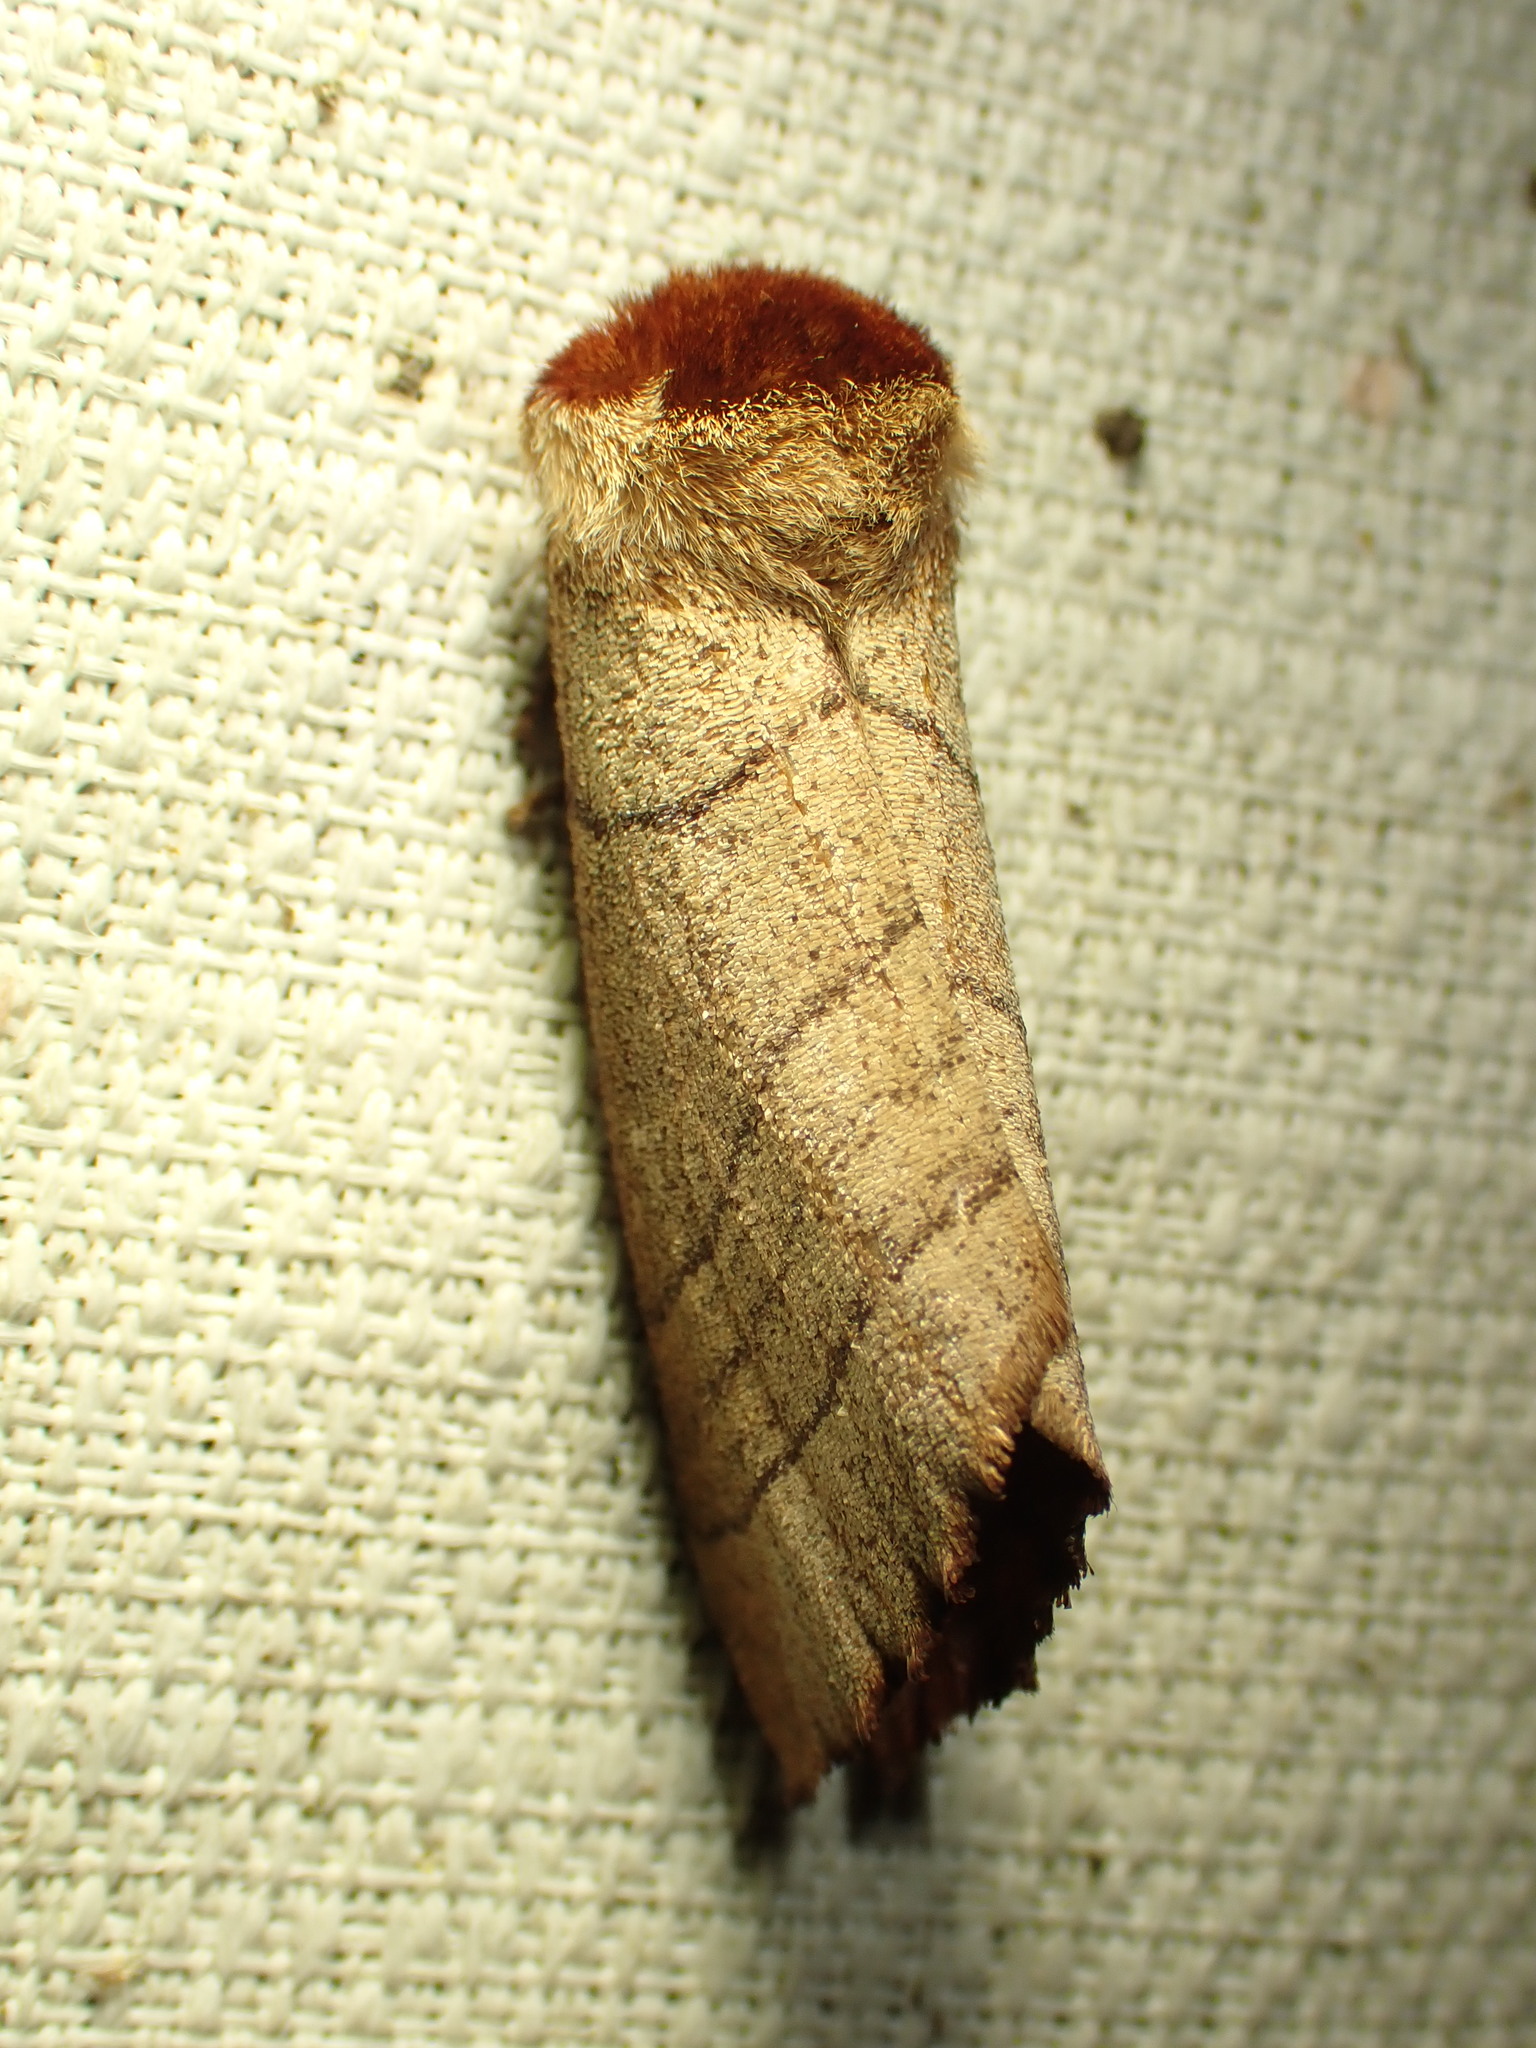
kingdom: Animalia
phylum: Arthropoda
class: Insecta
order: Lepidoptera
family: Notodontidae
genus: Datana
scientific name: Datana ministra
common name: Yellow-necked caterpillar moth
